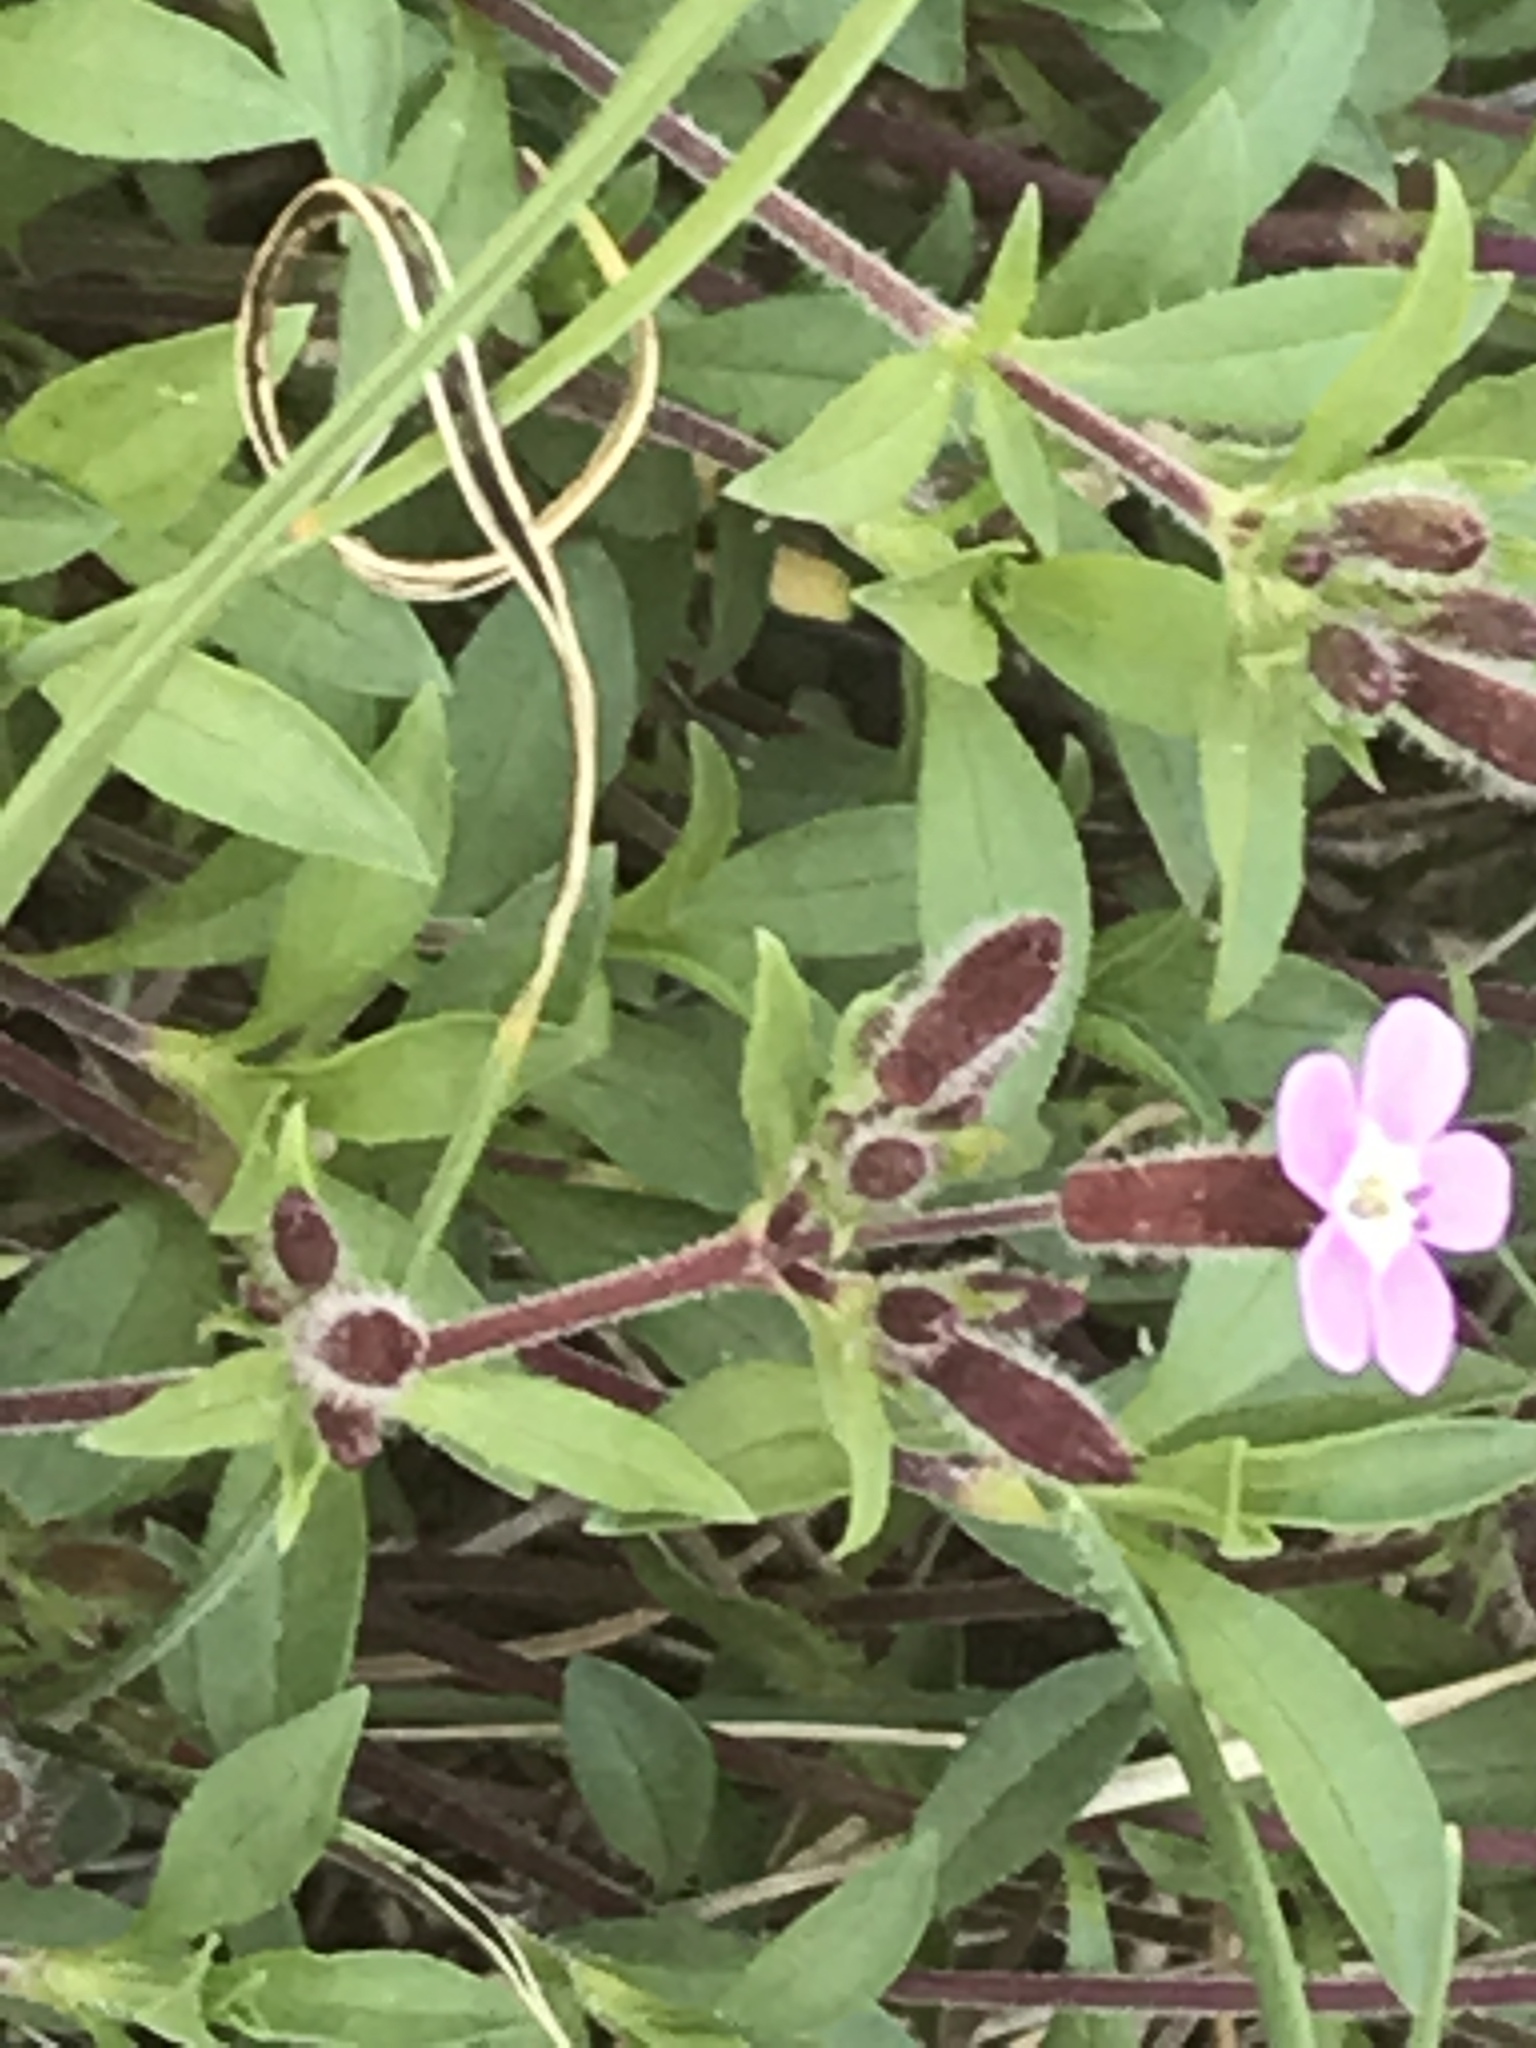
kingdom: Plantae
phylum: Tracheophyta
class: Magnoliopsida
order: Caryophyllales
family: Caryophyllaceae
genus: Saponaria
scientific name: Saponaria ocymoides
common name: Rock soapwort
